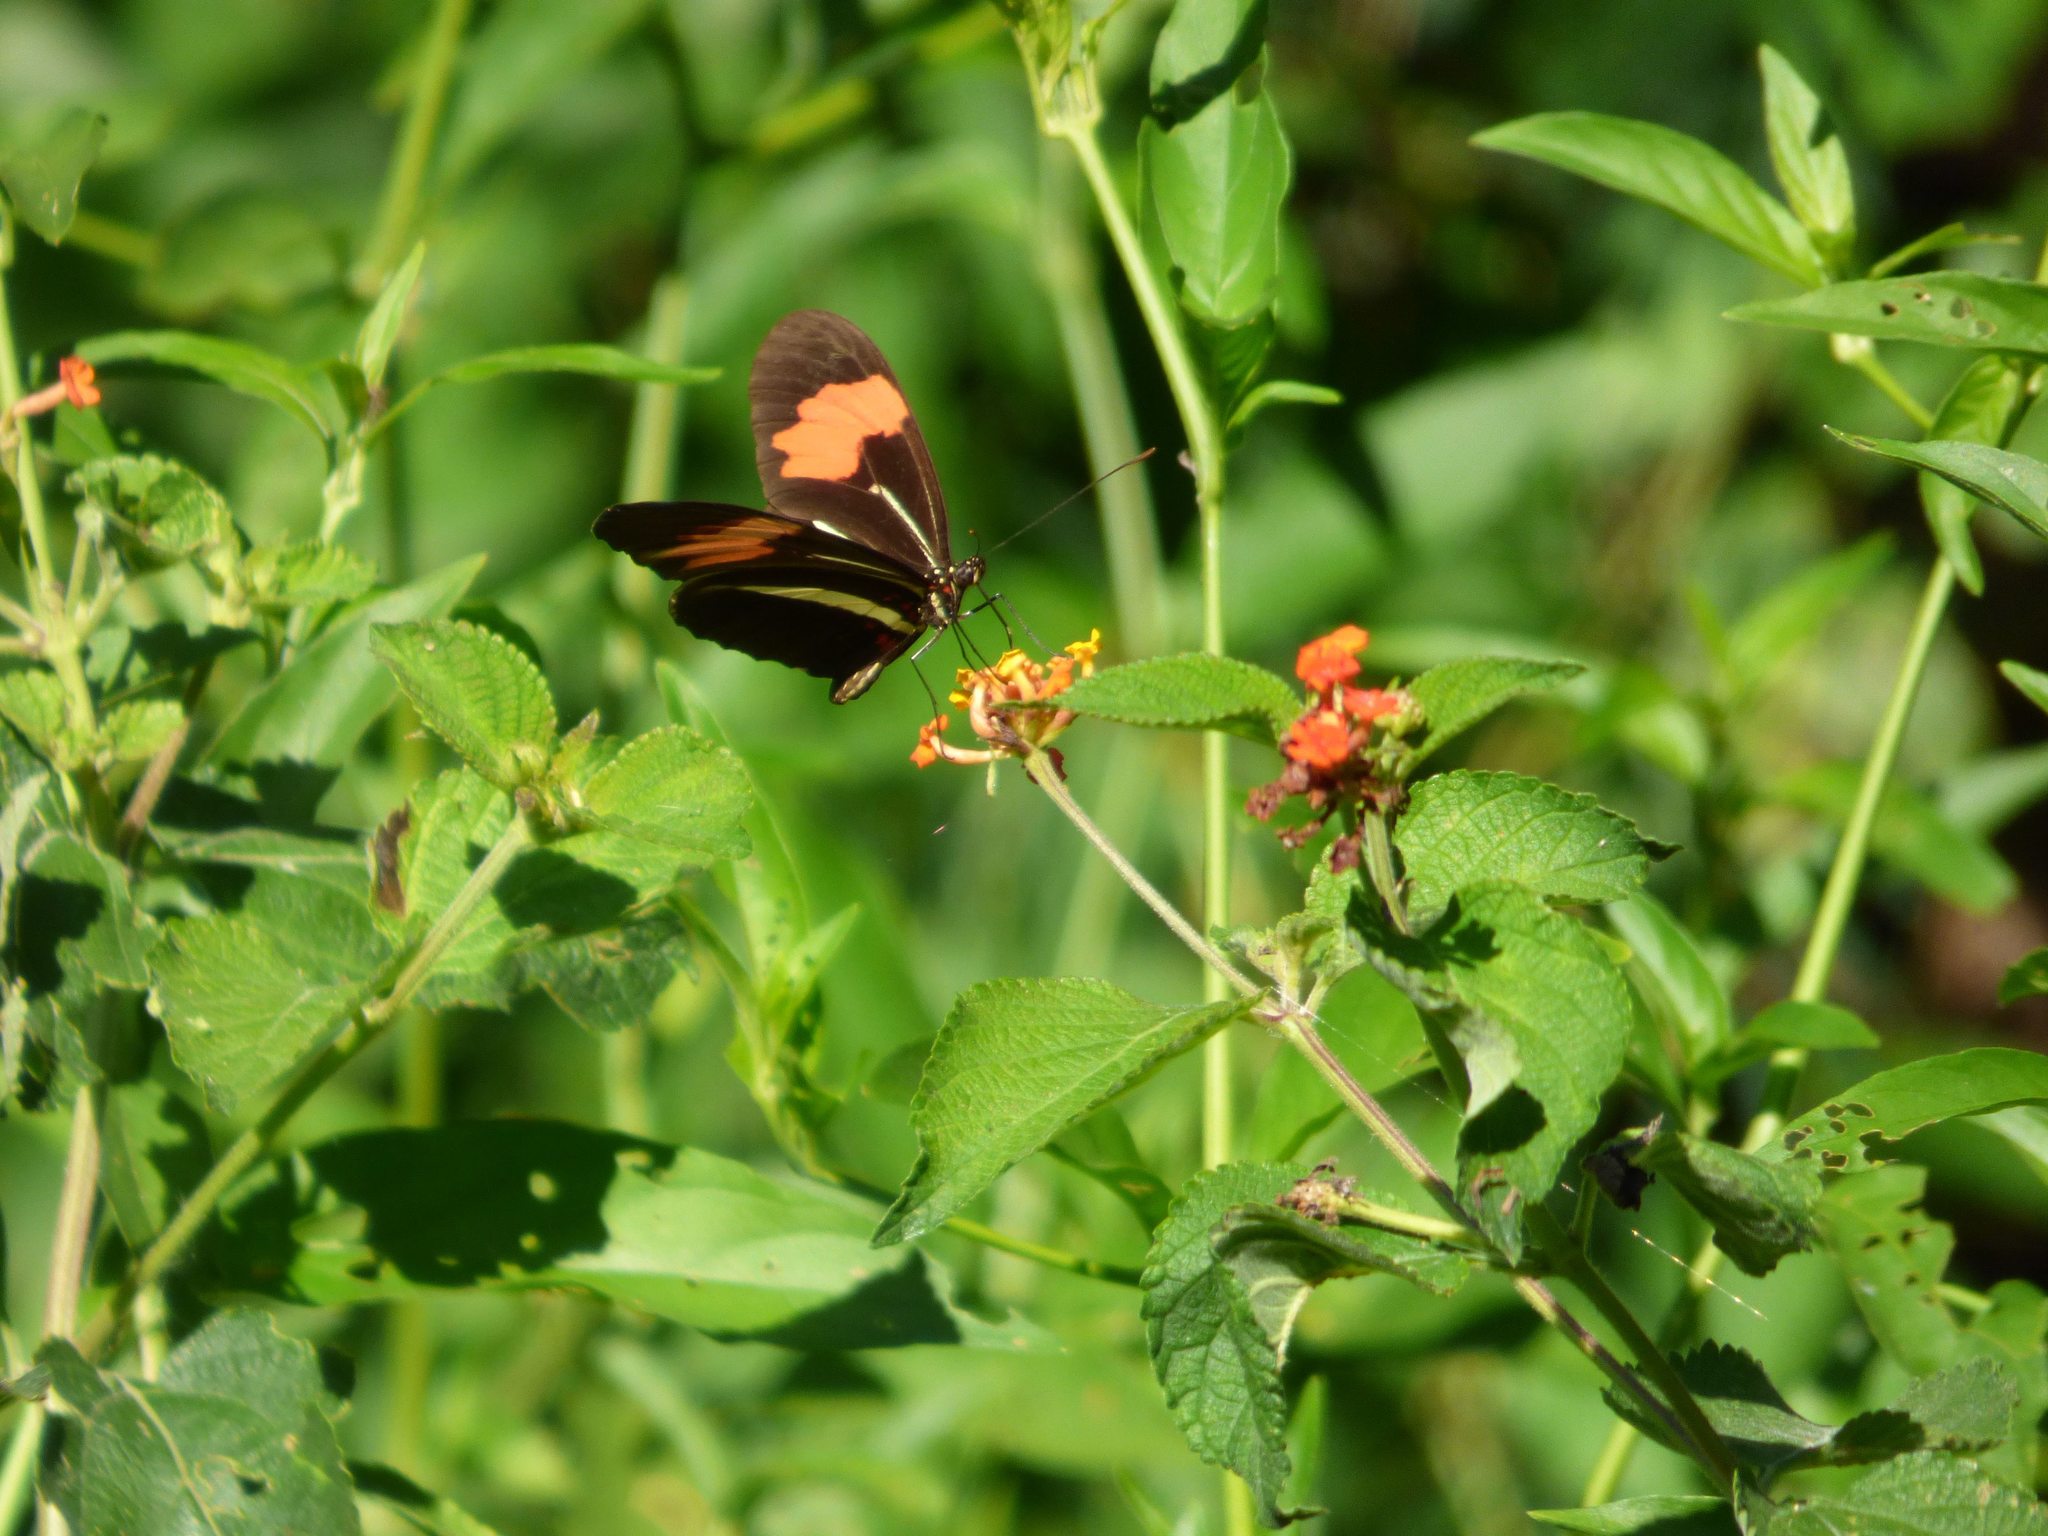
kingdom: Animalia
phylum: Arthropoda
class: Insecta
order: Lepidoptera
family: Nymphalidae
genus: Heliconius
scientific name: Heliconius erato
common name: Common patch longwing
